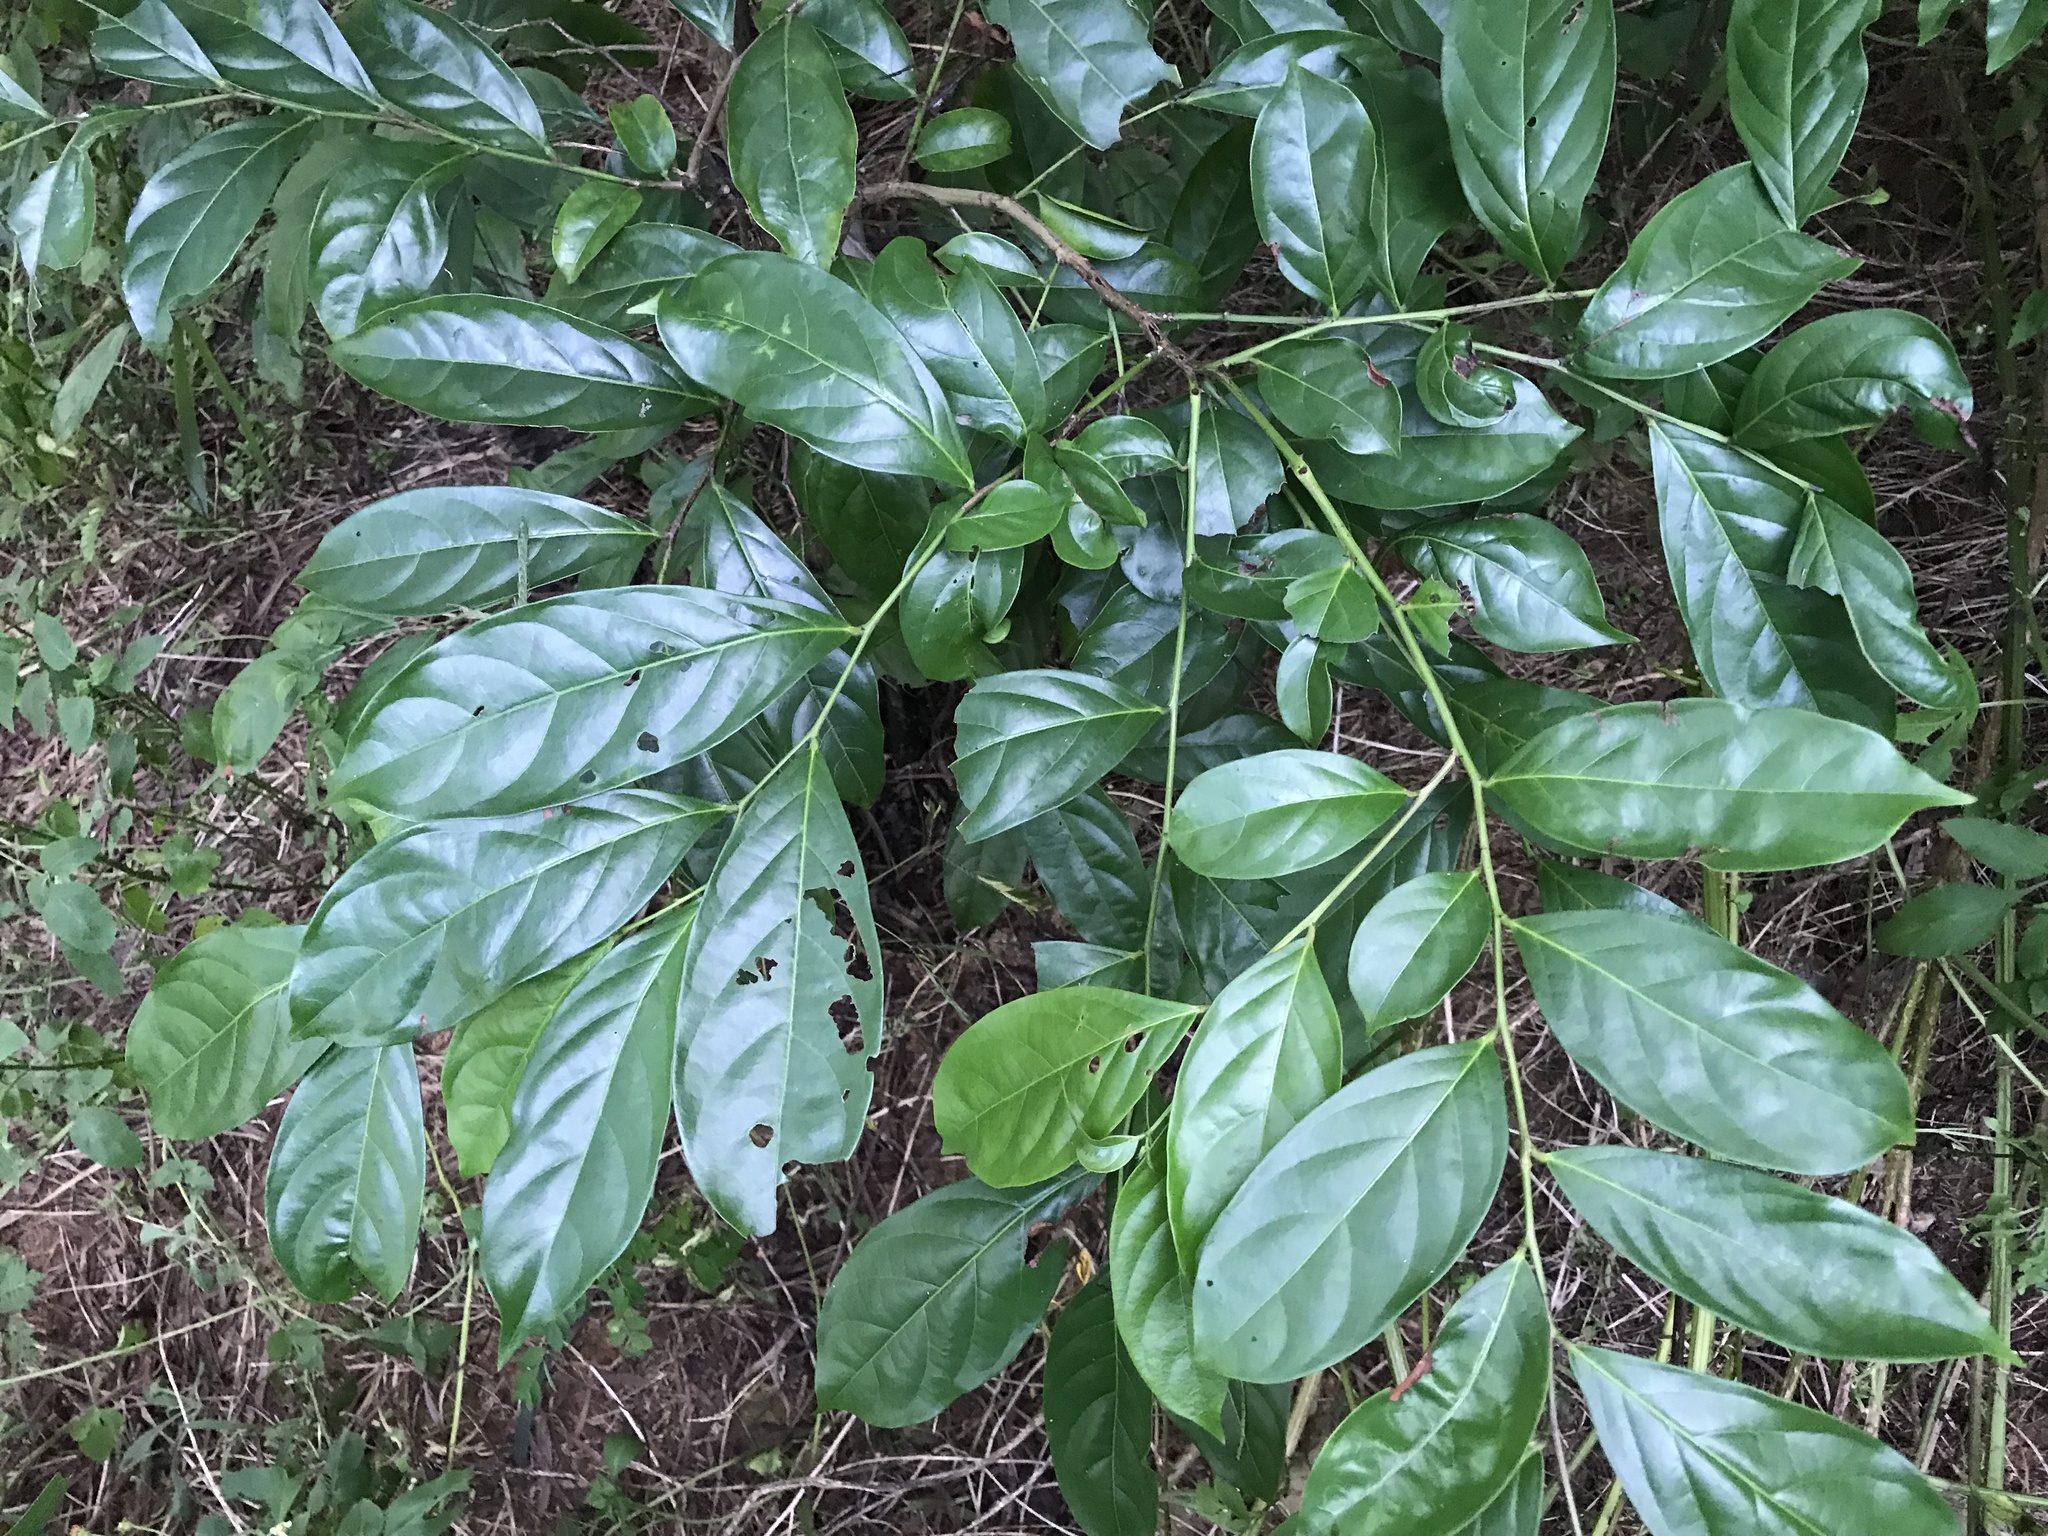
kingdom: Plantae
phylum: Tracheophyta
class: Magnoliopsida
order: Malpighiales
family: Salicaceae
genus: Casearia
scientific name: Casearia membranacea
